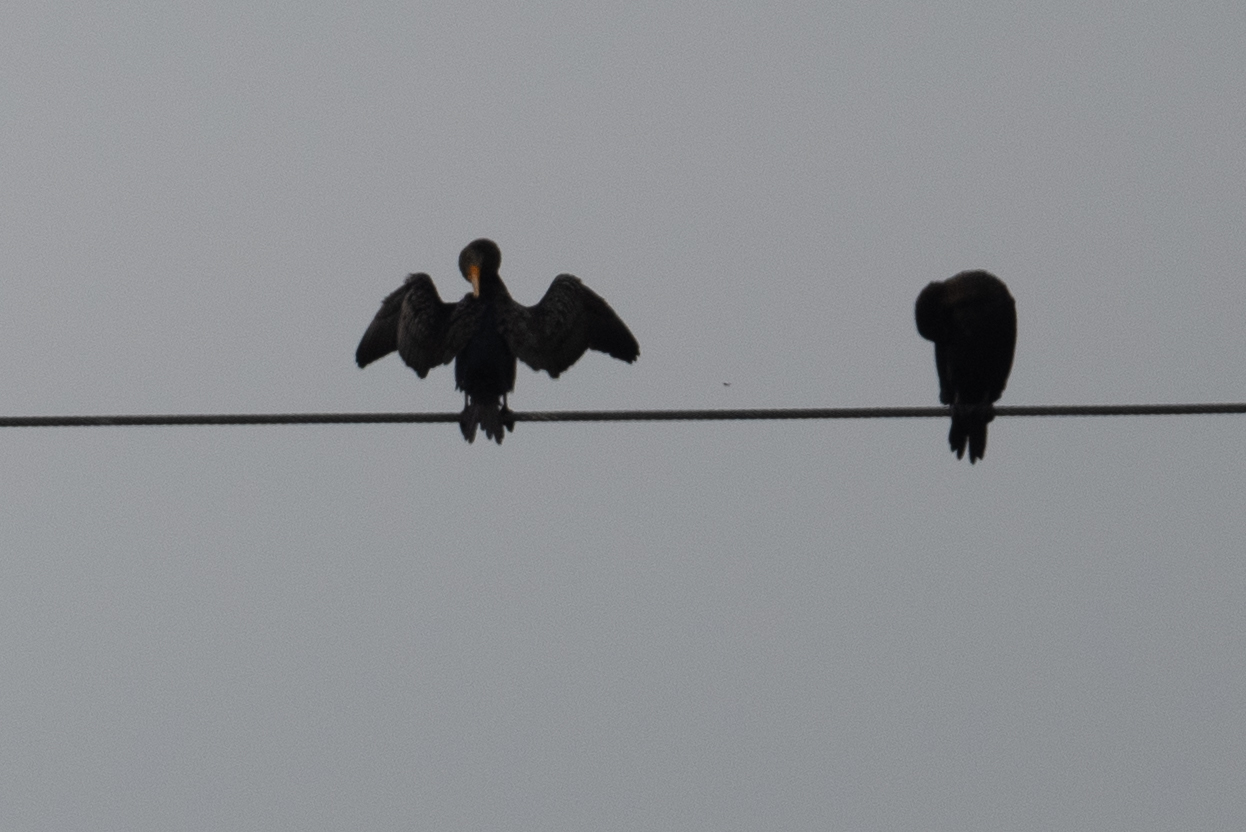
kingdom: Animalia
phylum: Chordata
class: Aves
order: Suliformes
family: Phalacrocoracidae
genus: Phalacrocorax
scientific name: Phalacrocorax auritus
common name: Double-crested cormorant
